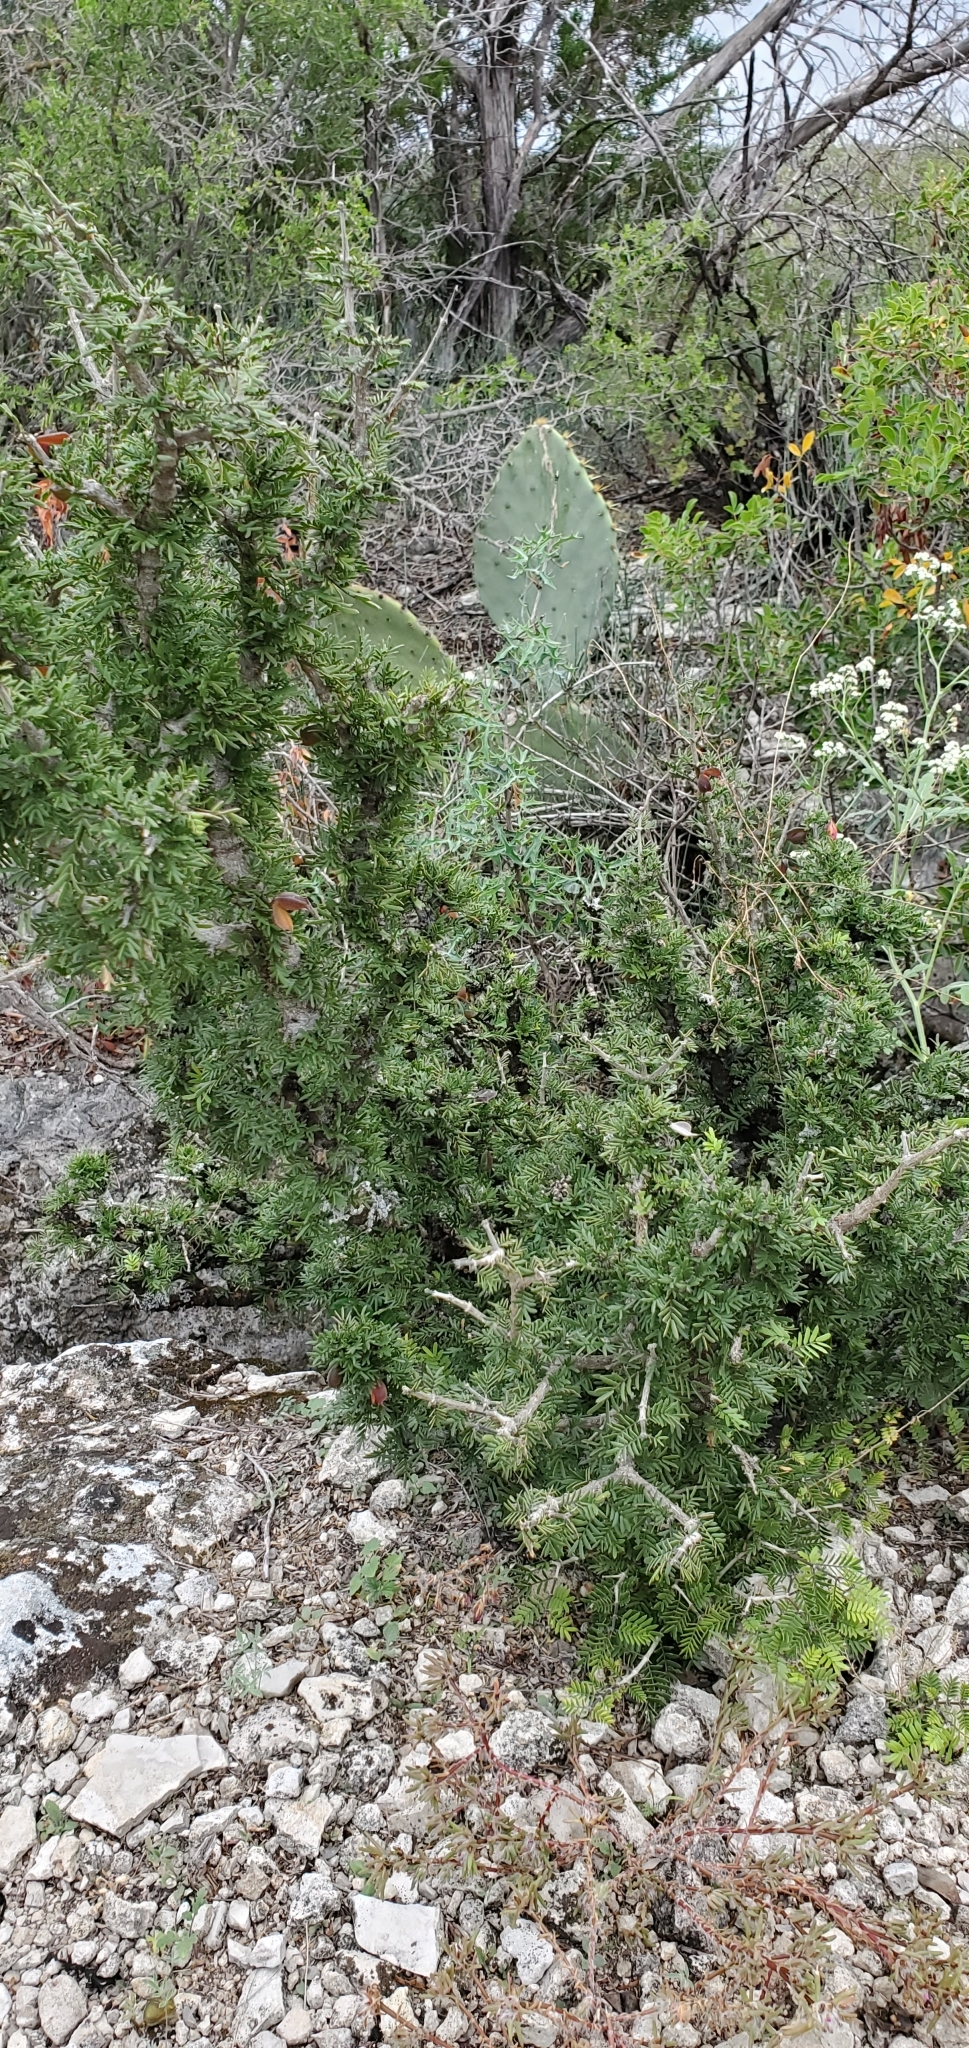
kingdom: Plantae
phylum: Tracheophyta
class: Magnoliopsida
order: Zygophyllales
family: Zygophyllaceae
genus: Porlieria
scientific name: Porlieria angustifolia
